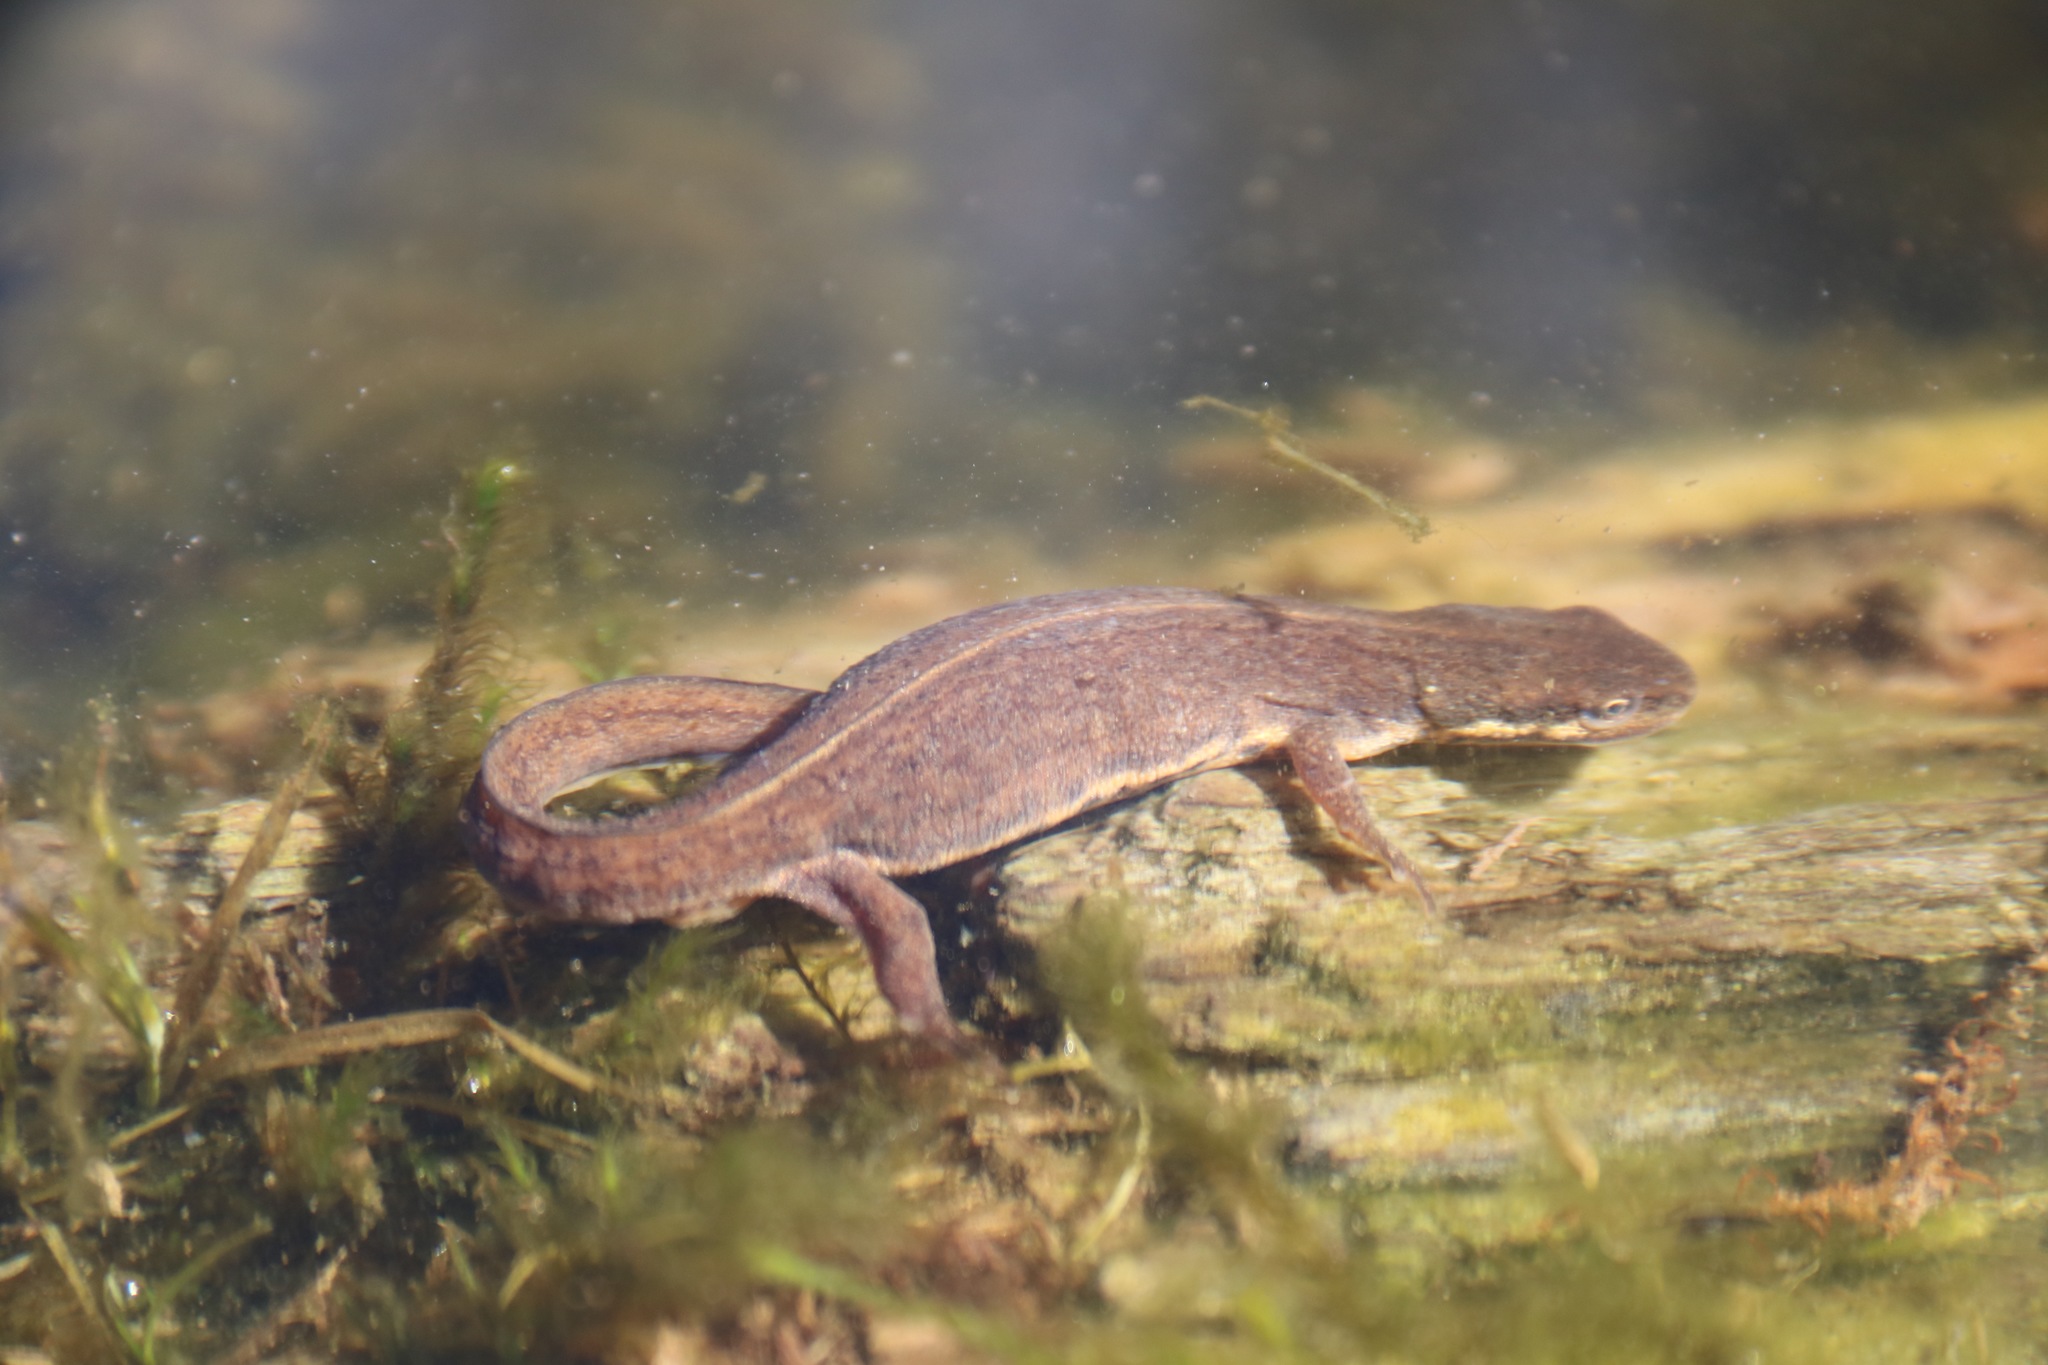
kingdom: Animalia
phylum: Chordata
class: Amphibia
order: Caudata
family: Salamandridae
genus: Lissotriton
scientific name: Lissotriton vulgaris
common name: Smooth newt
